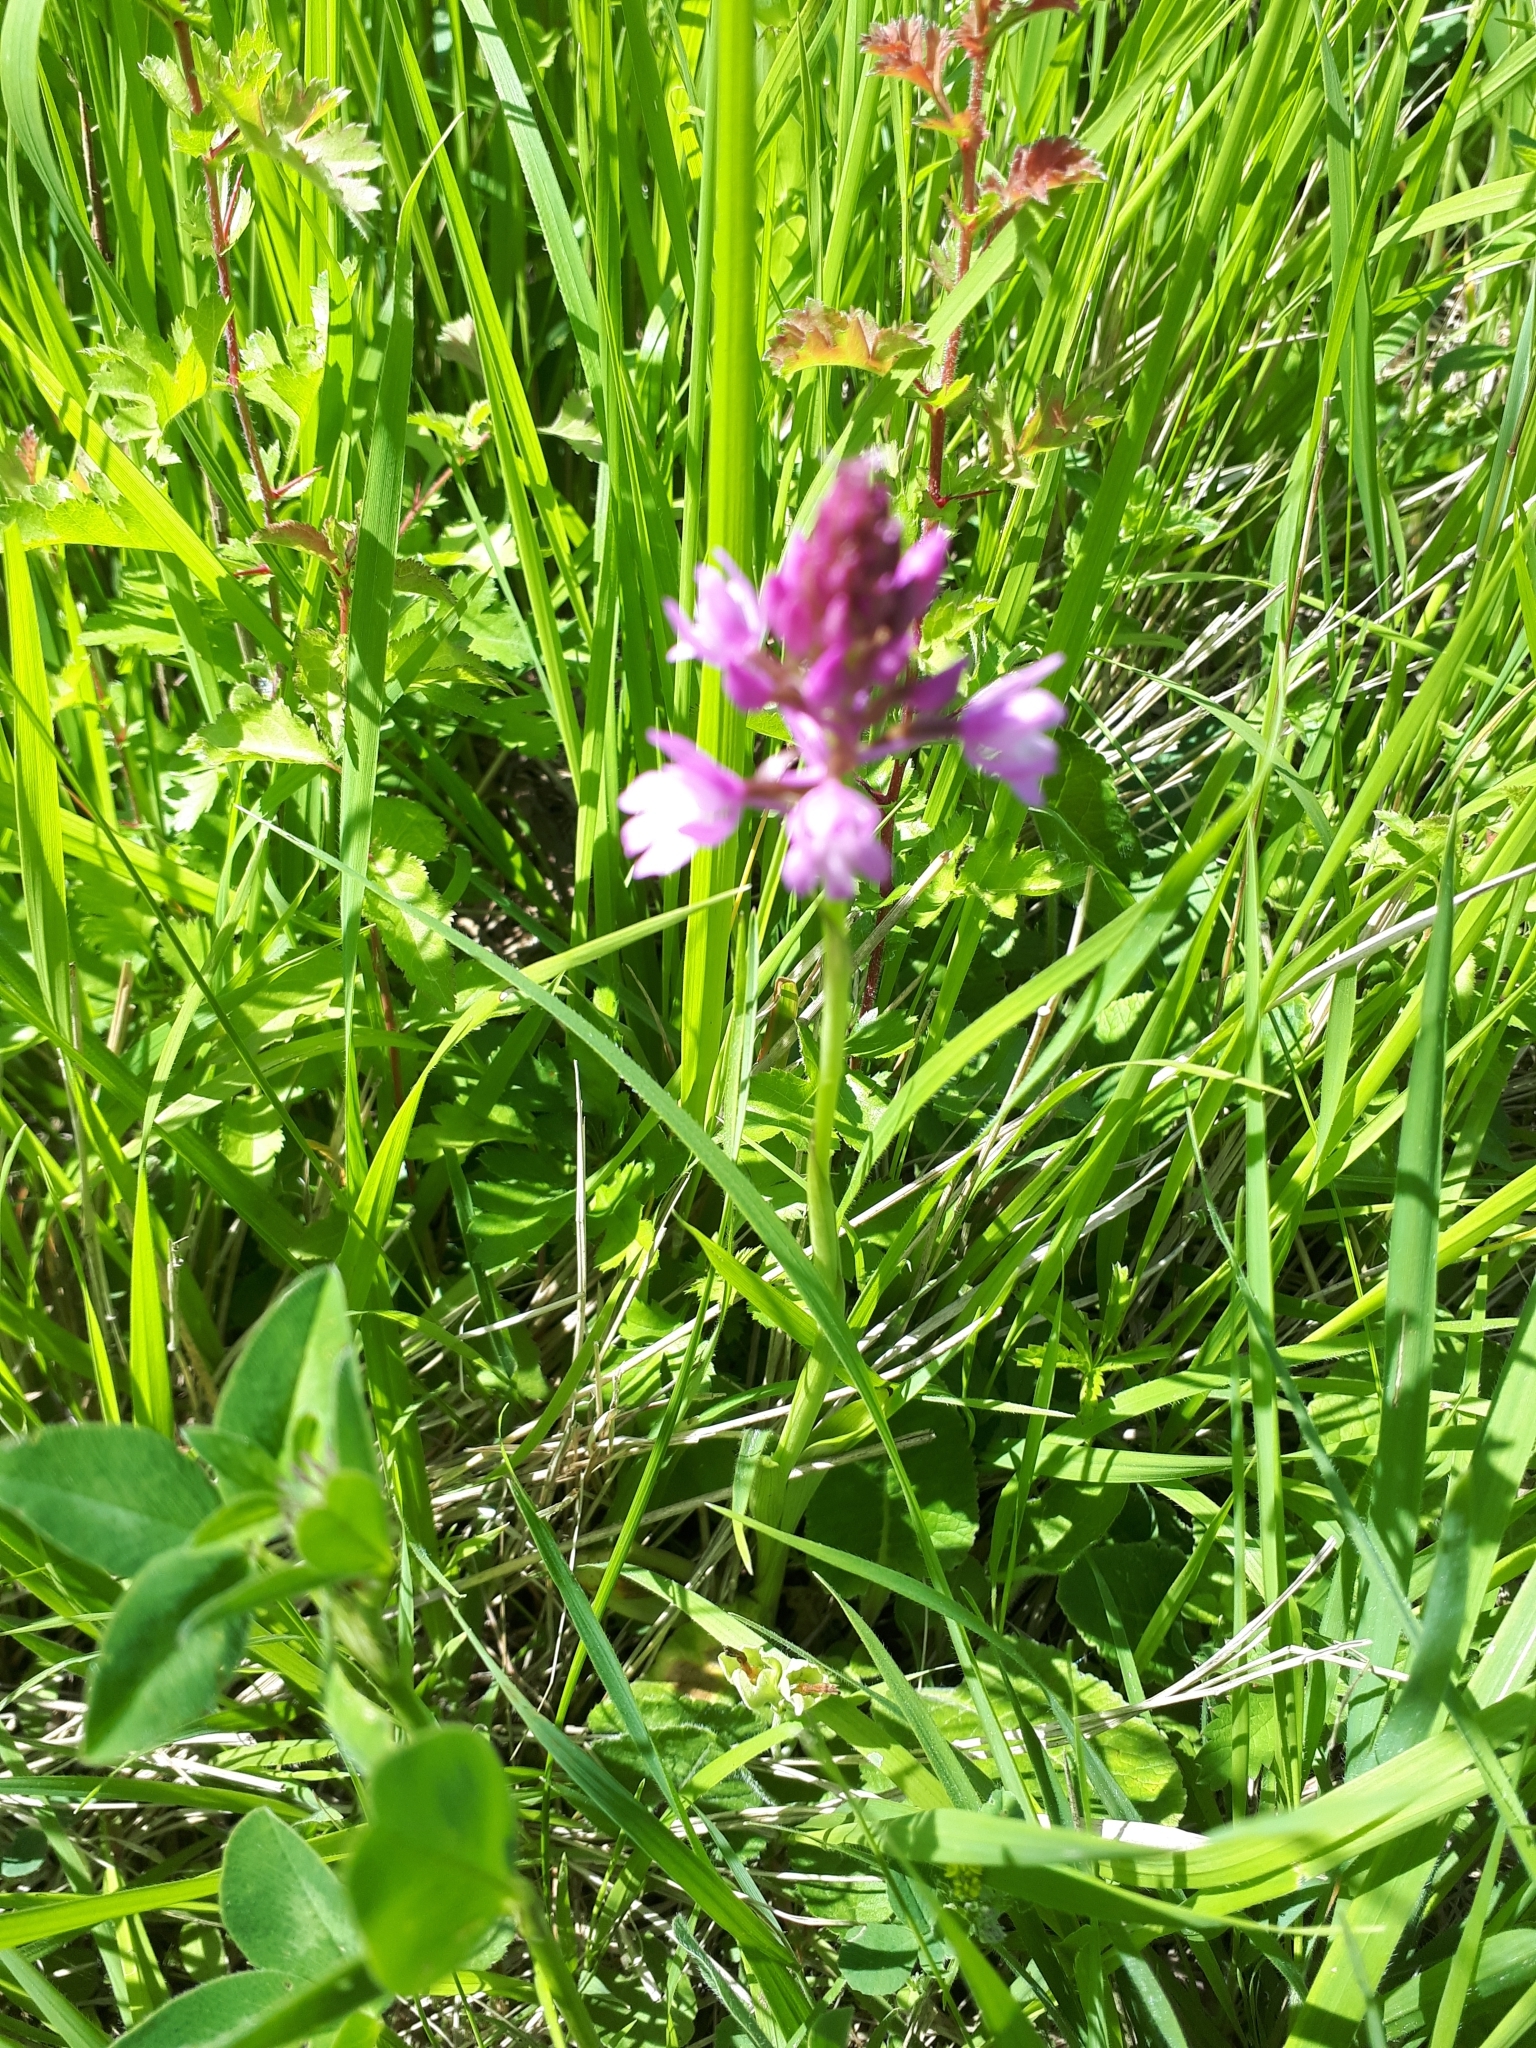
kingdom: Plantae
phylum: Tracheophyta
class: Liliopsida
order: Asparagales
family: Orchidaceae
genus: Anacamptis
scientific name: Anacamptis pyramidalis
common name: Pyramidal orchid
